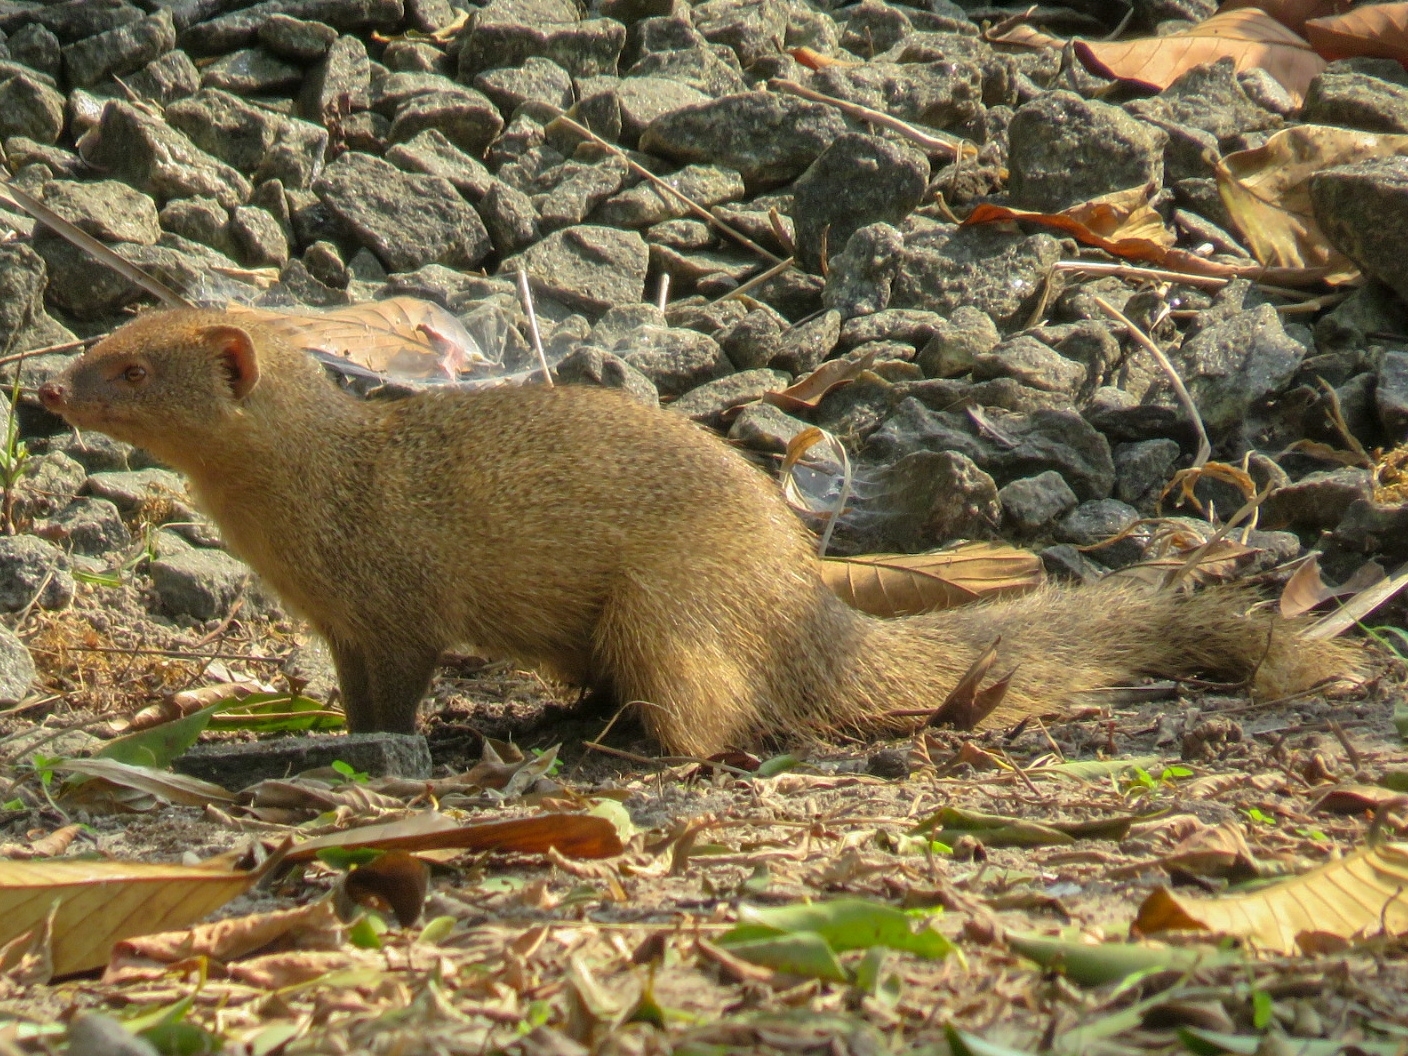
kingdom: Animalia
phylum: Chordata
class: Mammalia
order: Carnivora
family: Herpestidae
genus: Herpestes
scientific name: Herpestes edwardsi
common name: Indian gray mongoose
